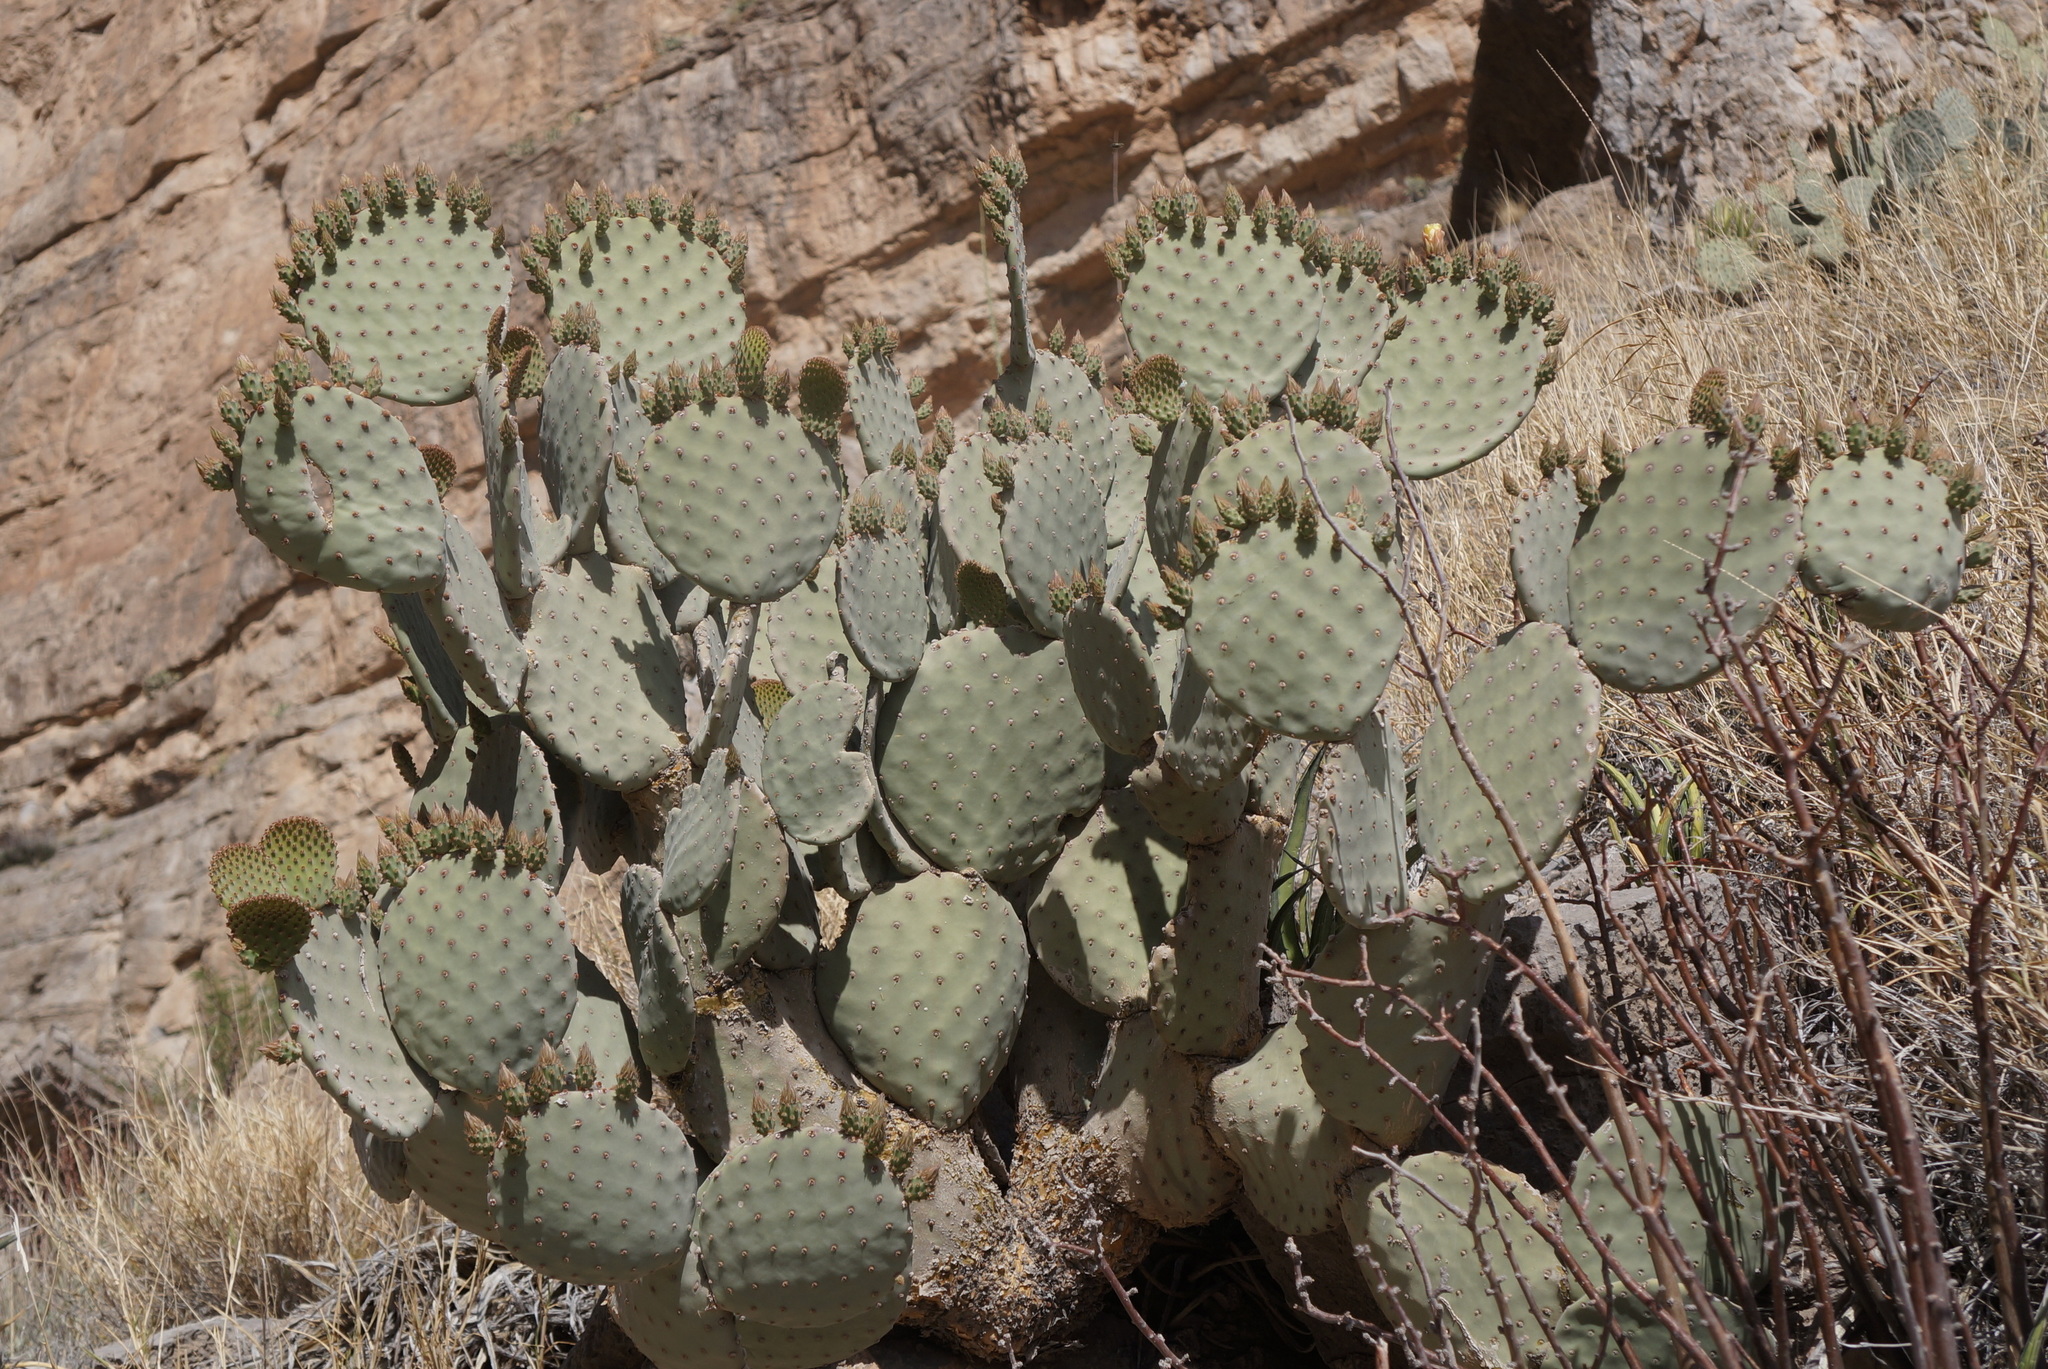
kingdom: Plantae
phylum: Tracheophyta
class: Magnoliopsida
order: Caryophyllales
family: Cactaceae
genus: Opuntia
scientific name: Opuntia rufida
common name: Blind pricklypear
